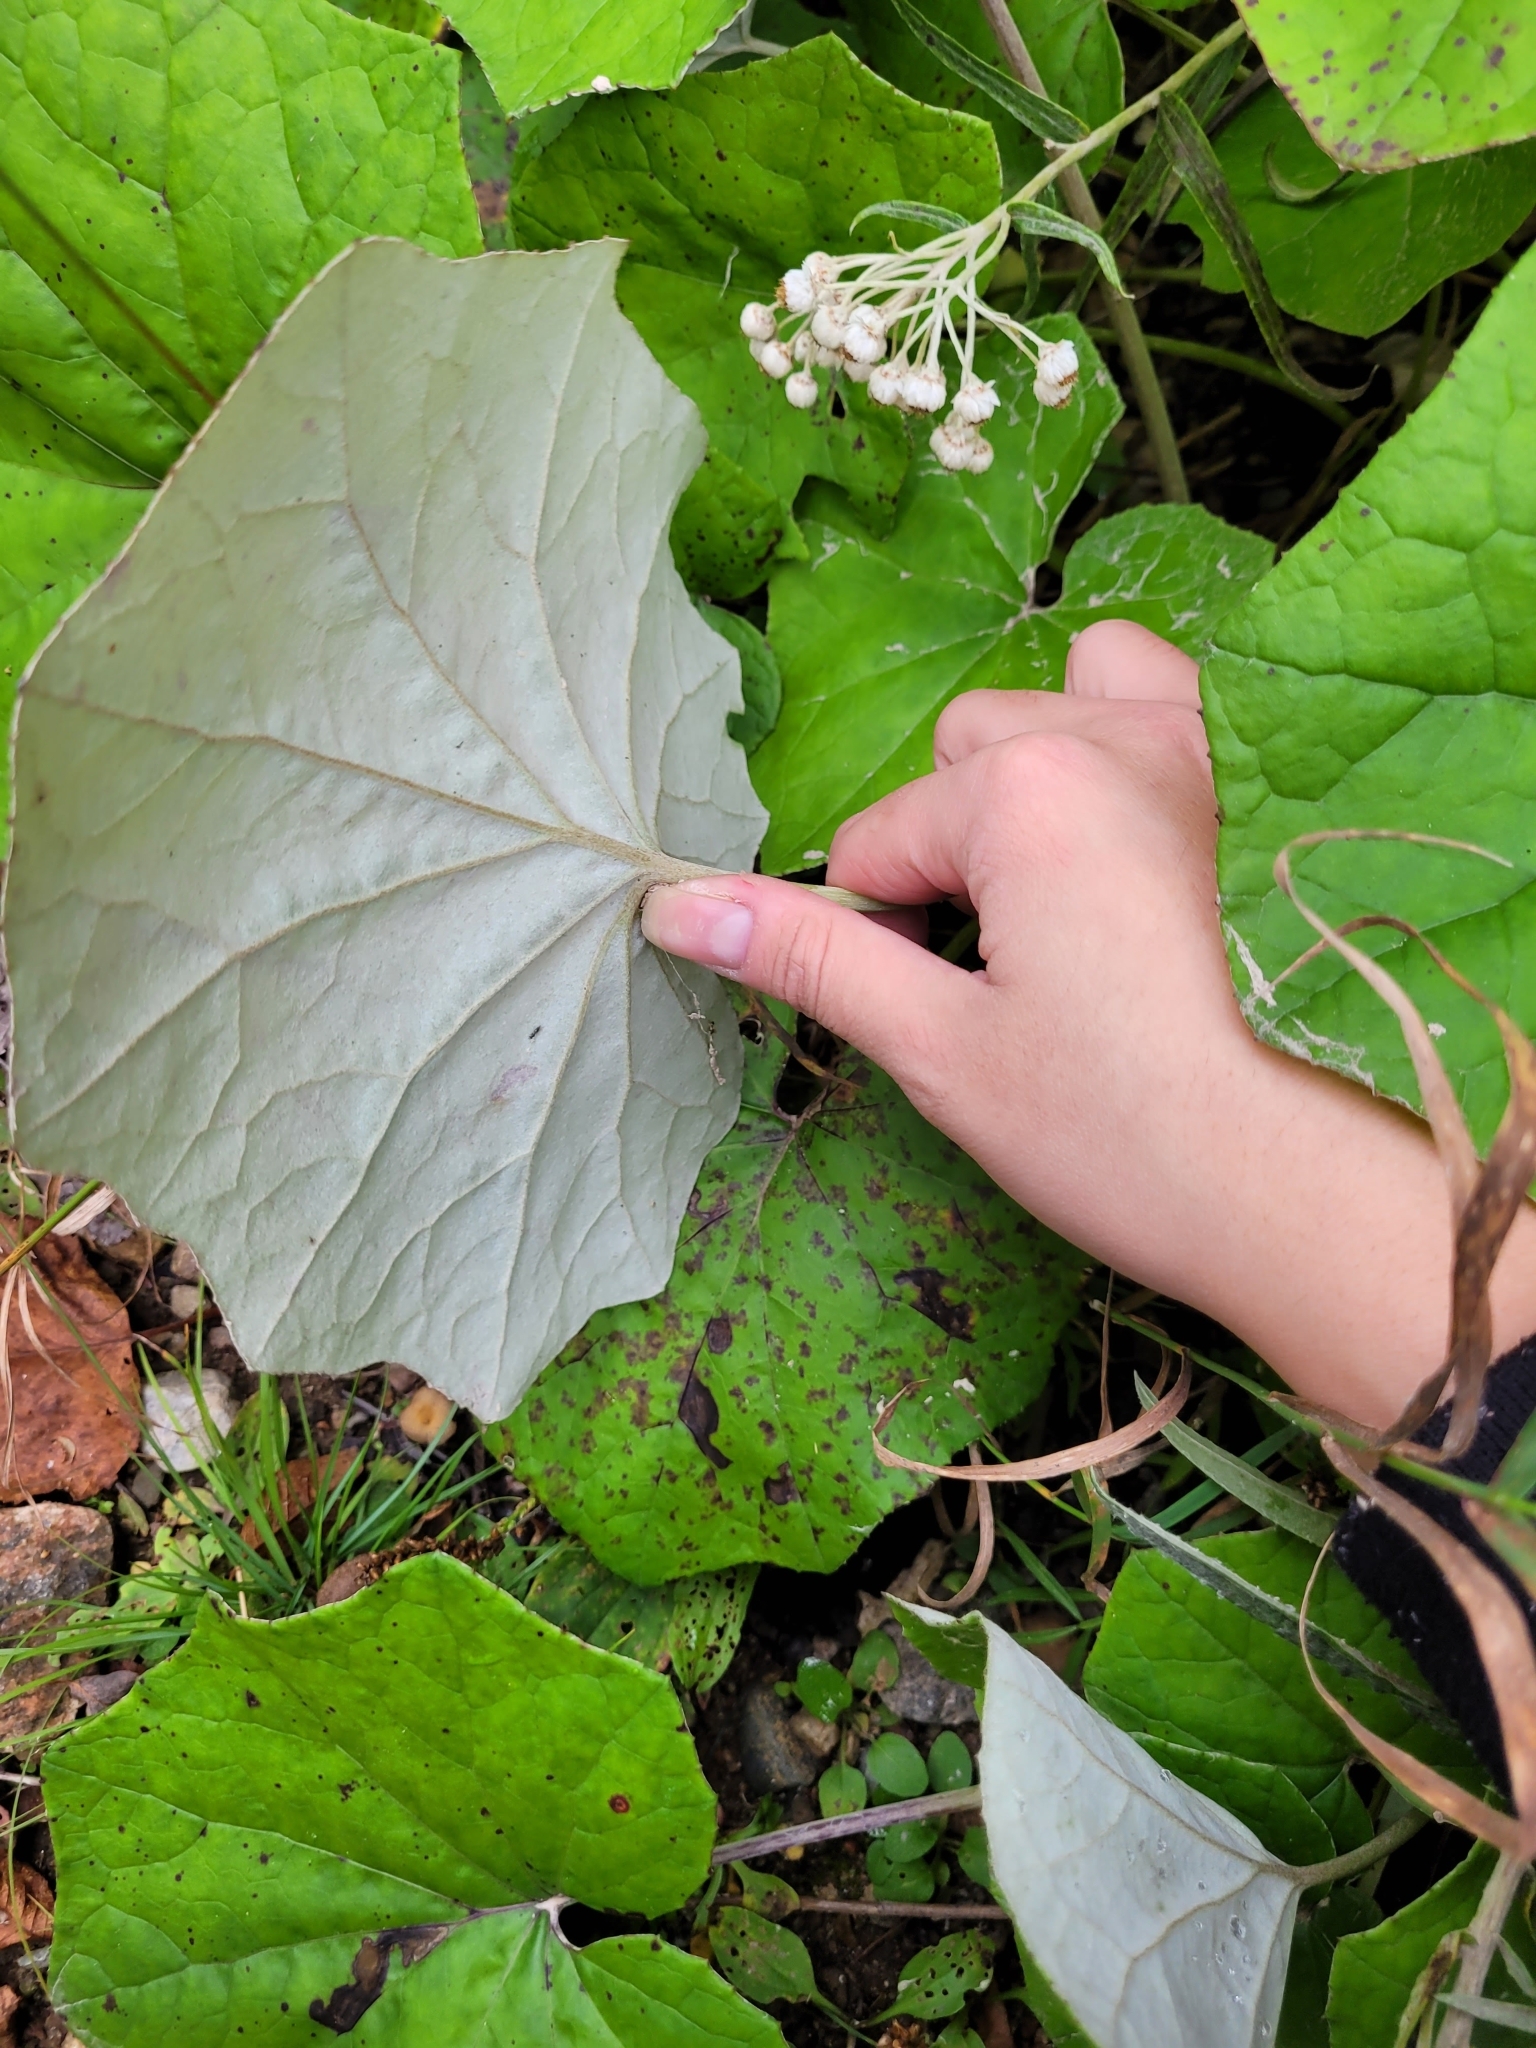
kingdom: Plantae
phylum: Tracheophyta
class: Magnoliopsida
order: Asterales
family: Asteraceae
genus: Tussilago
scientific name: Tussilago farfara
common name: Coltsfoot
